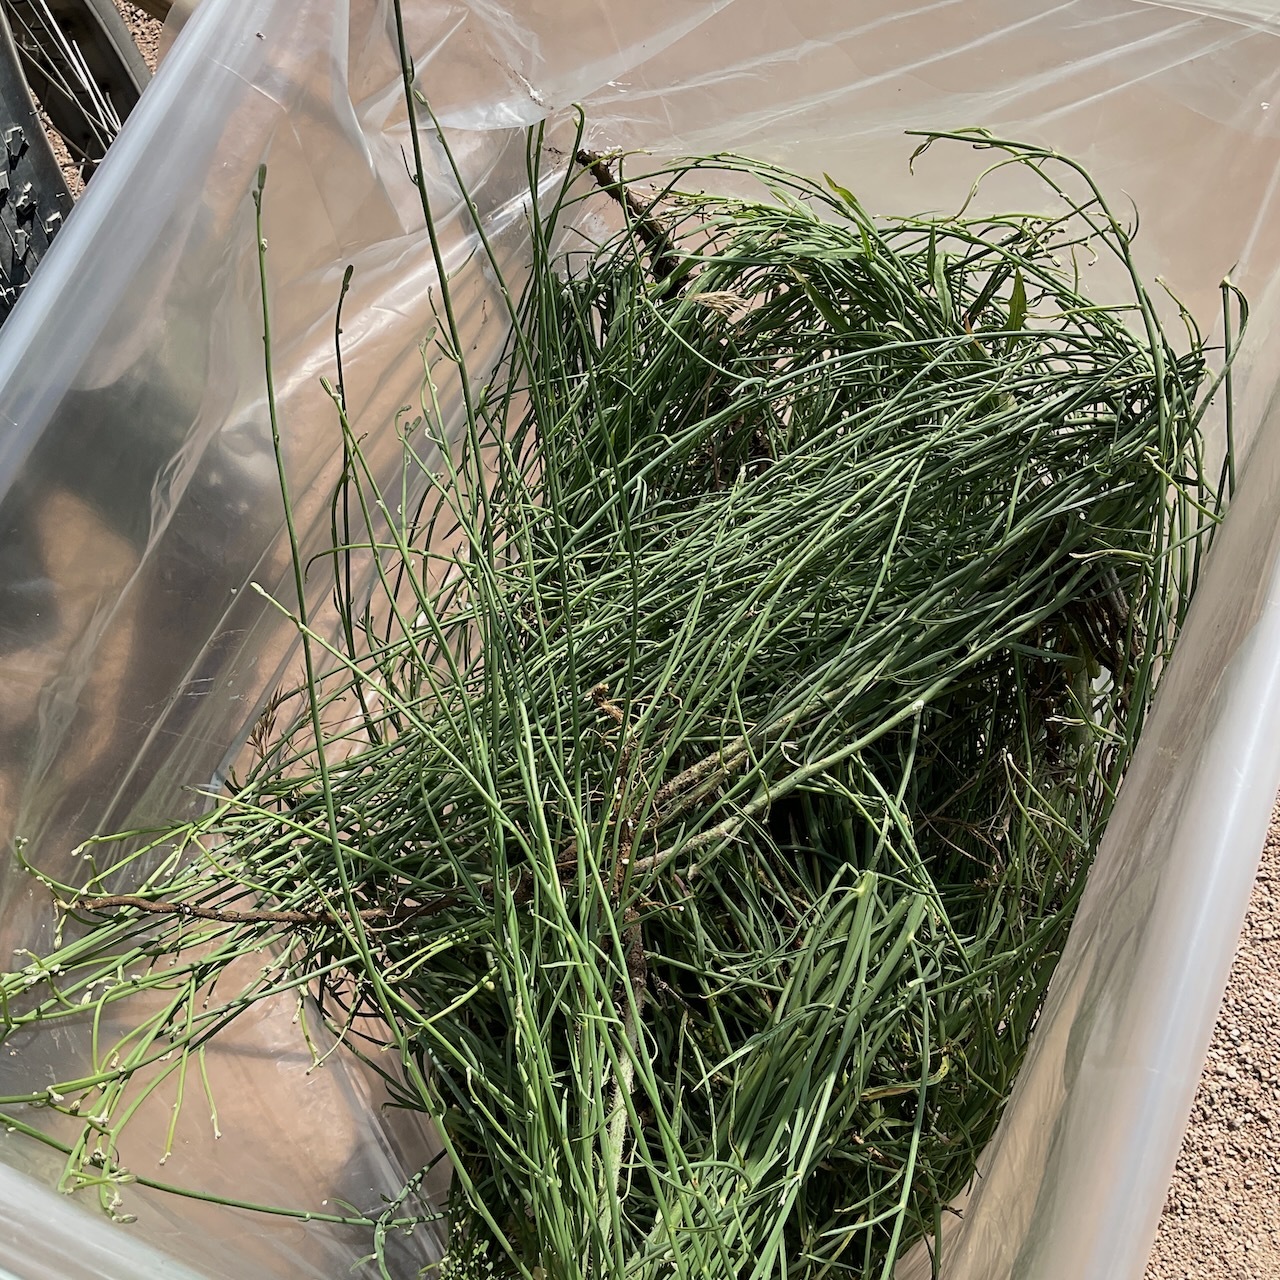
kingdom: Plantae
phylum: Tracheophyta
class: Magnoliopsida
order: Asterales
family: Asteraceae
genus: Chondrilla
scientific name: Chondrilla juncea
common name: Skeleton weed
